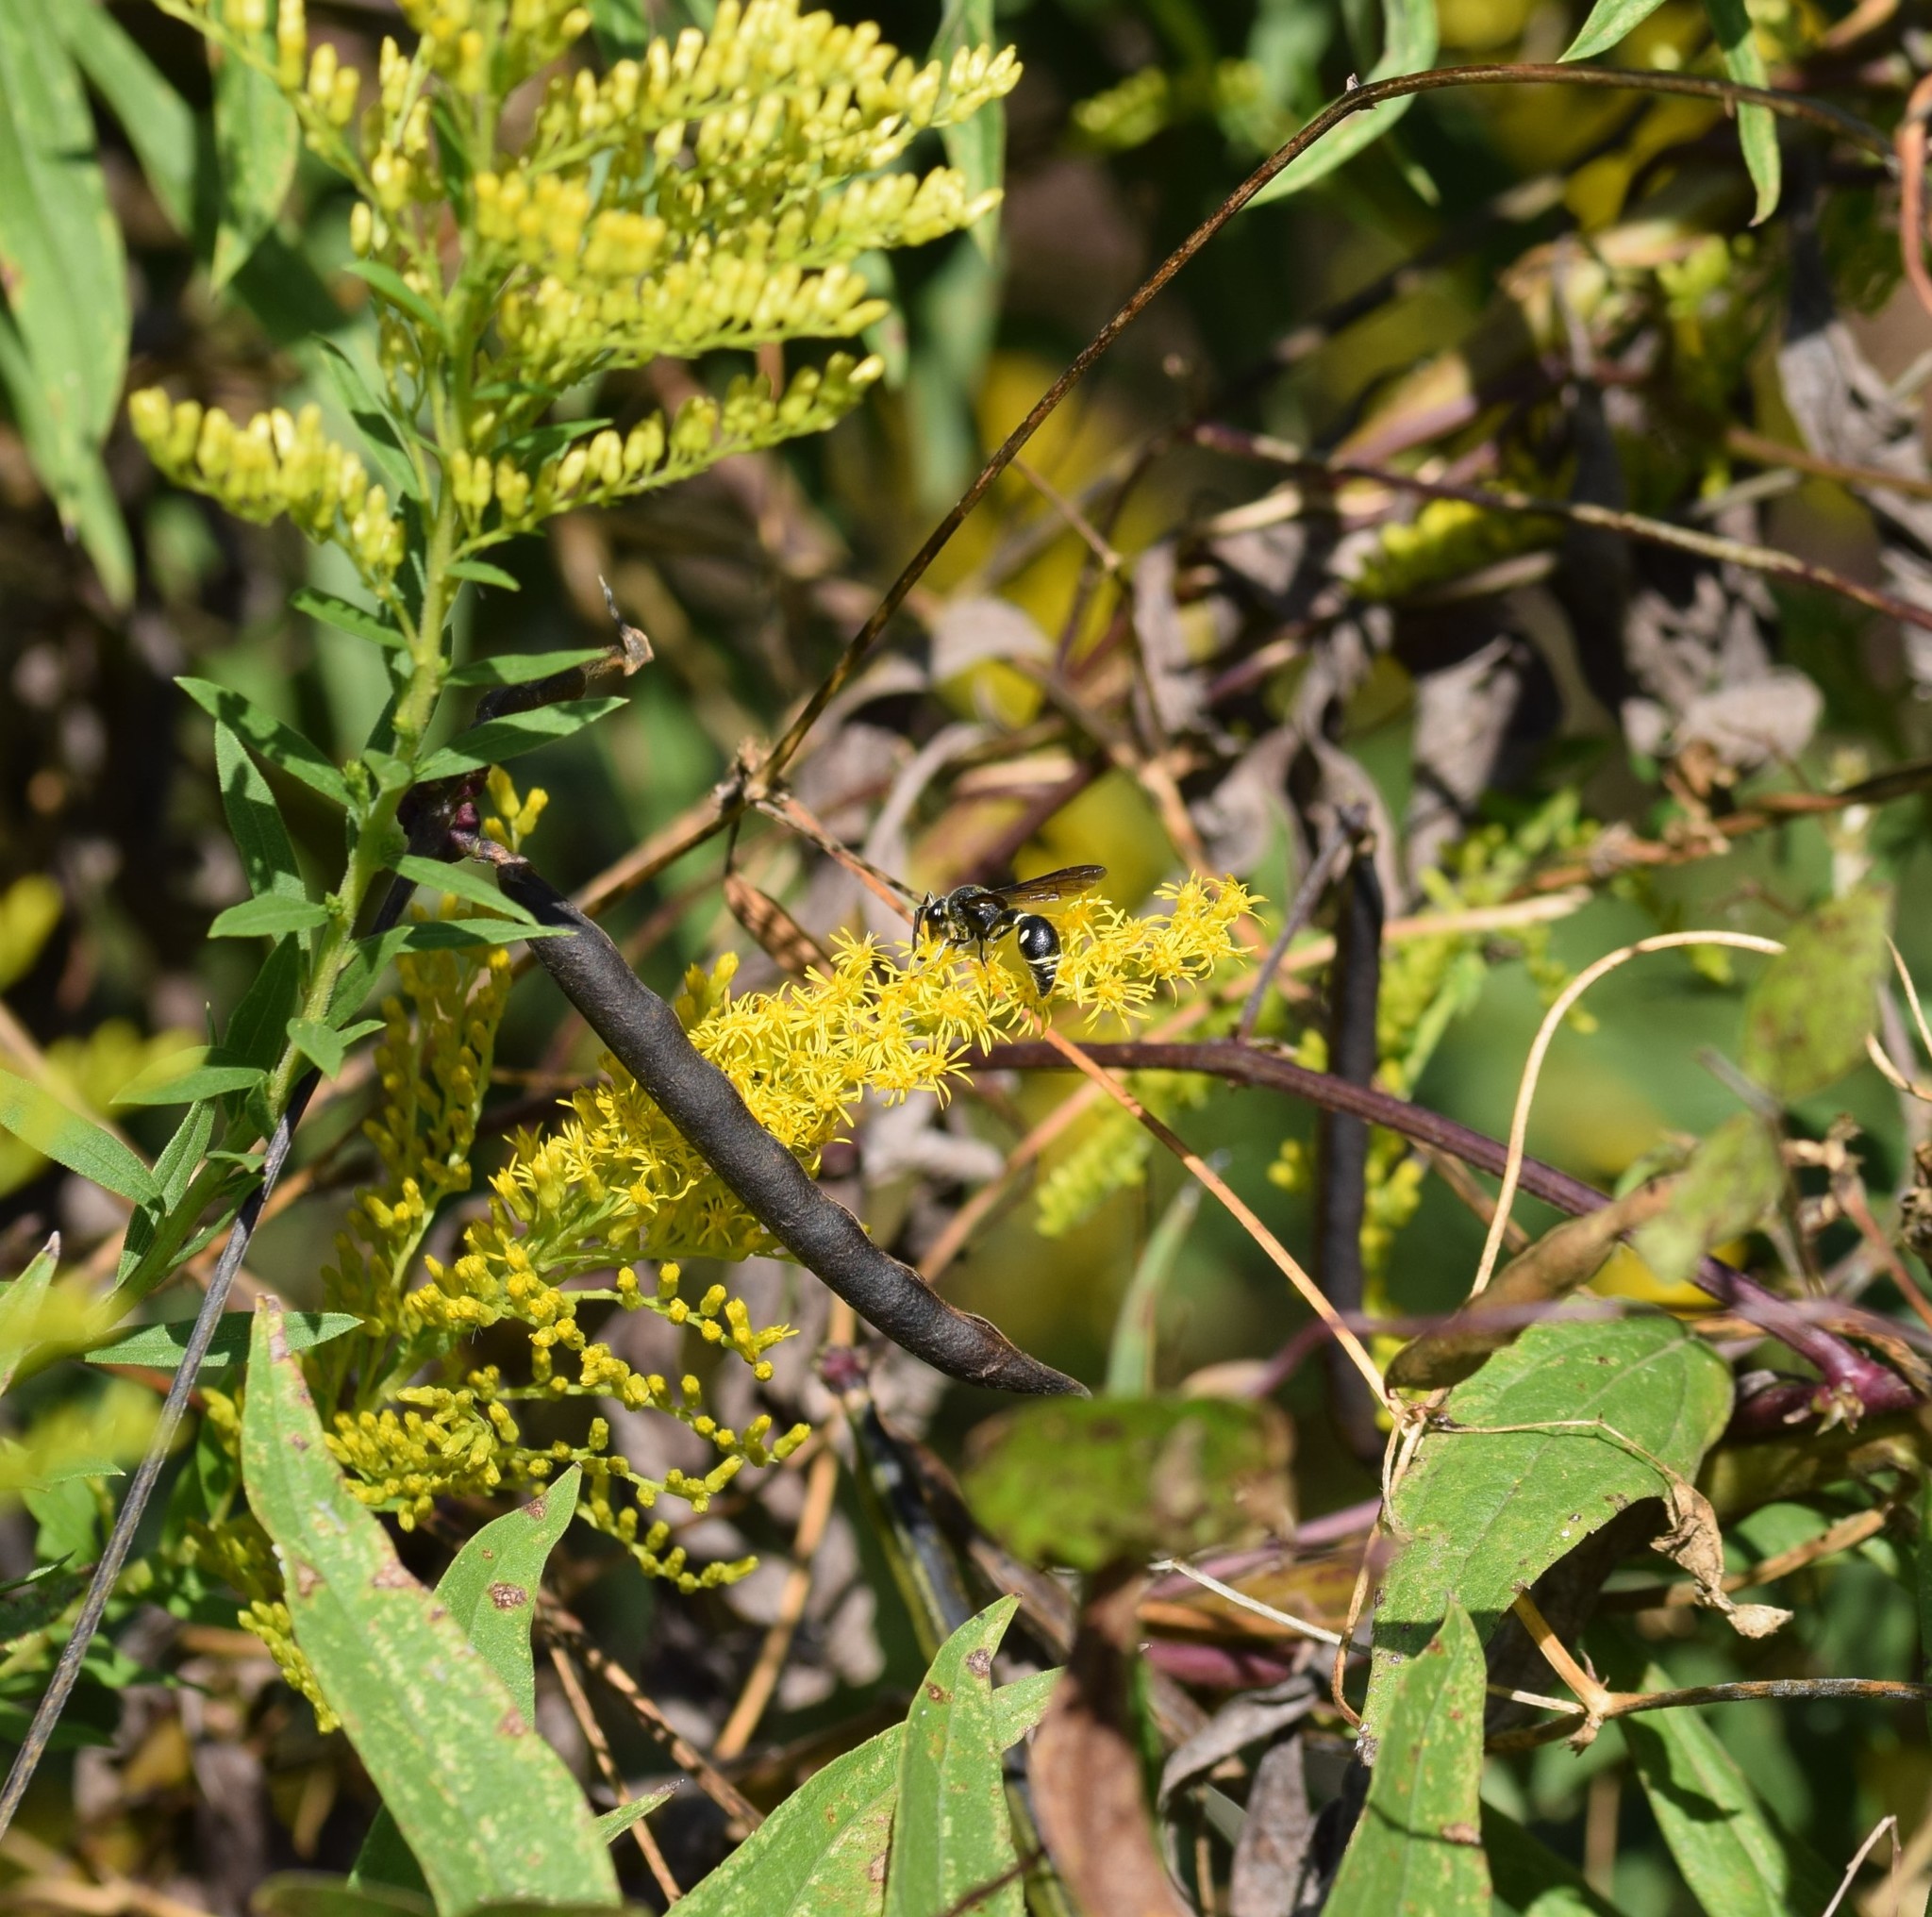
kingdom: Animalia
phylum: Arthropoda
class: Insecta
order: Hymenoptera
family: Vespidae
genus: Eumenes
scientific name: Eumenes fraternus
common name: Fraternal potter wasp
